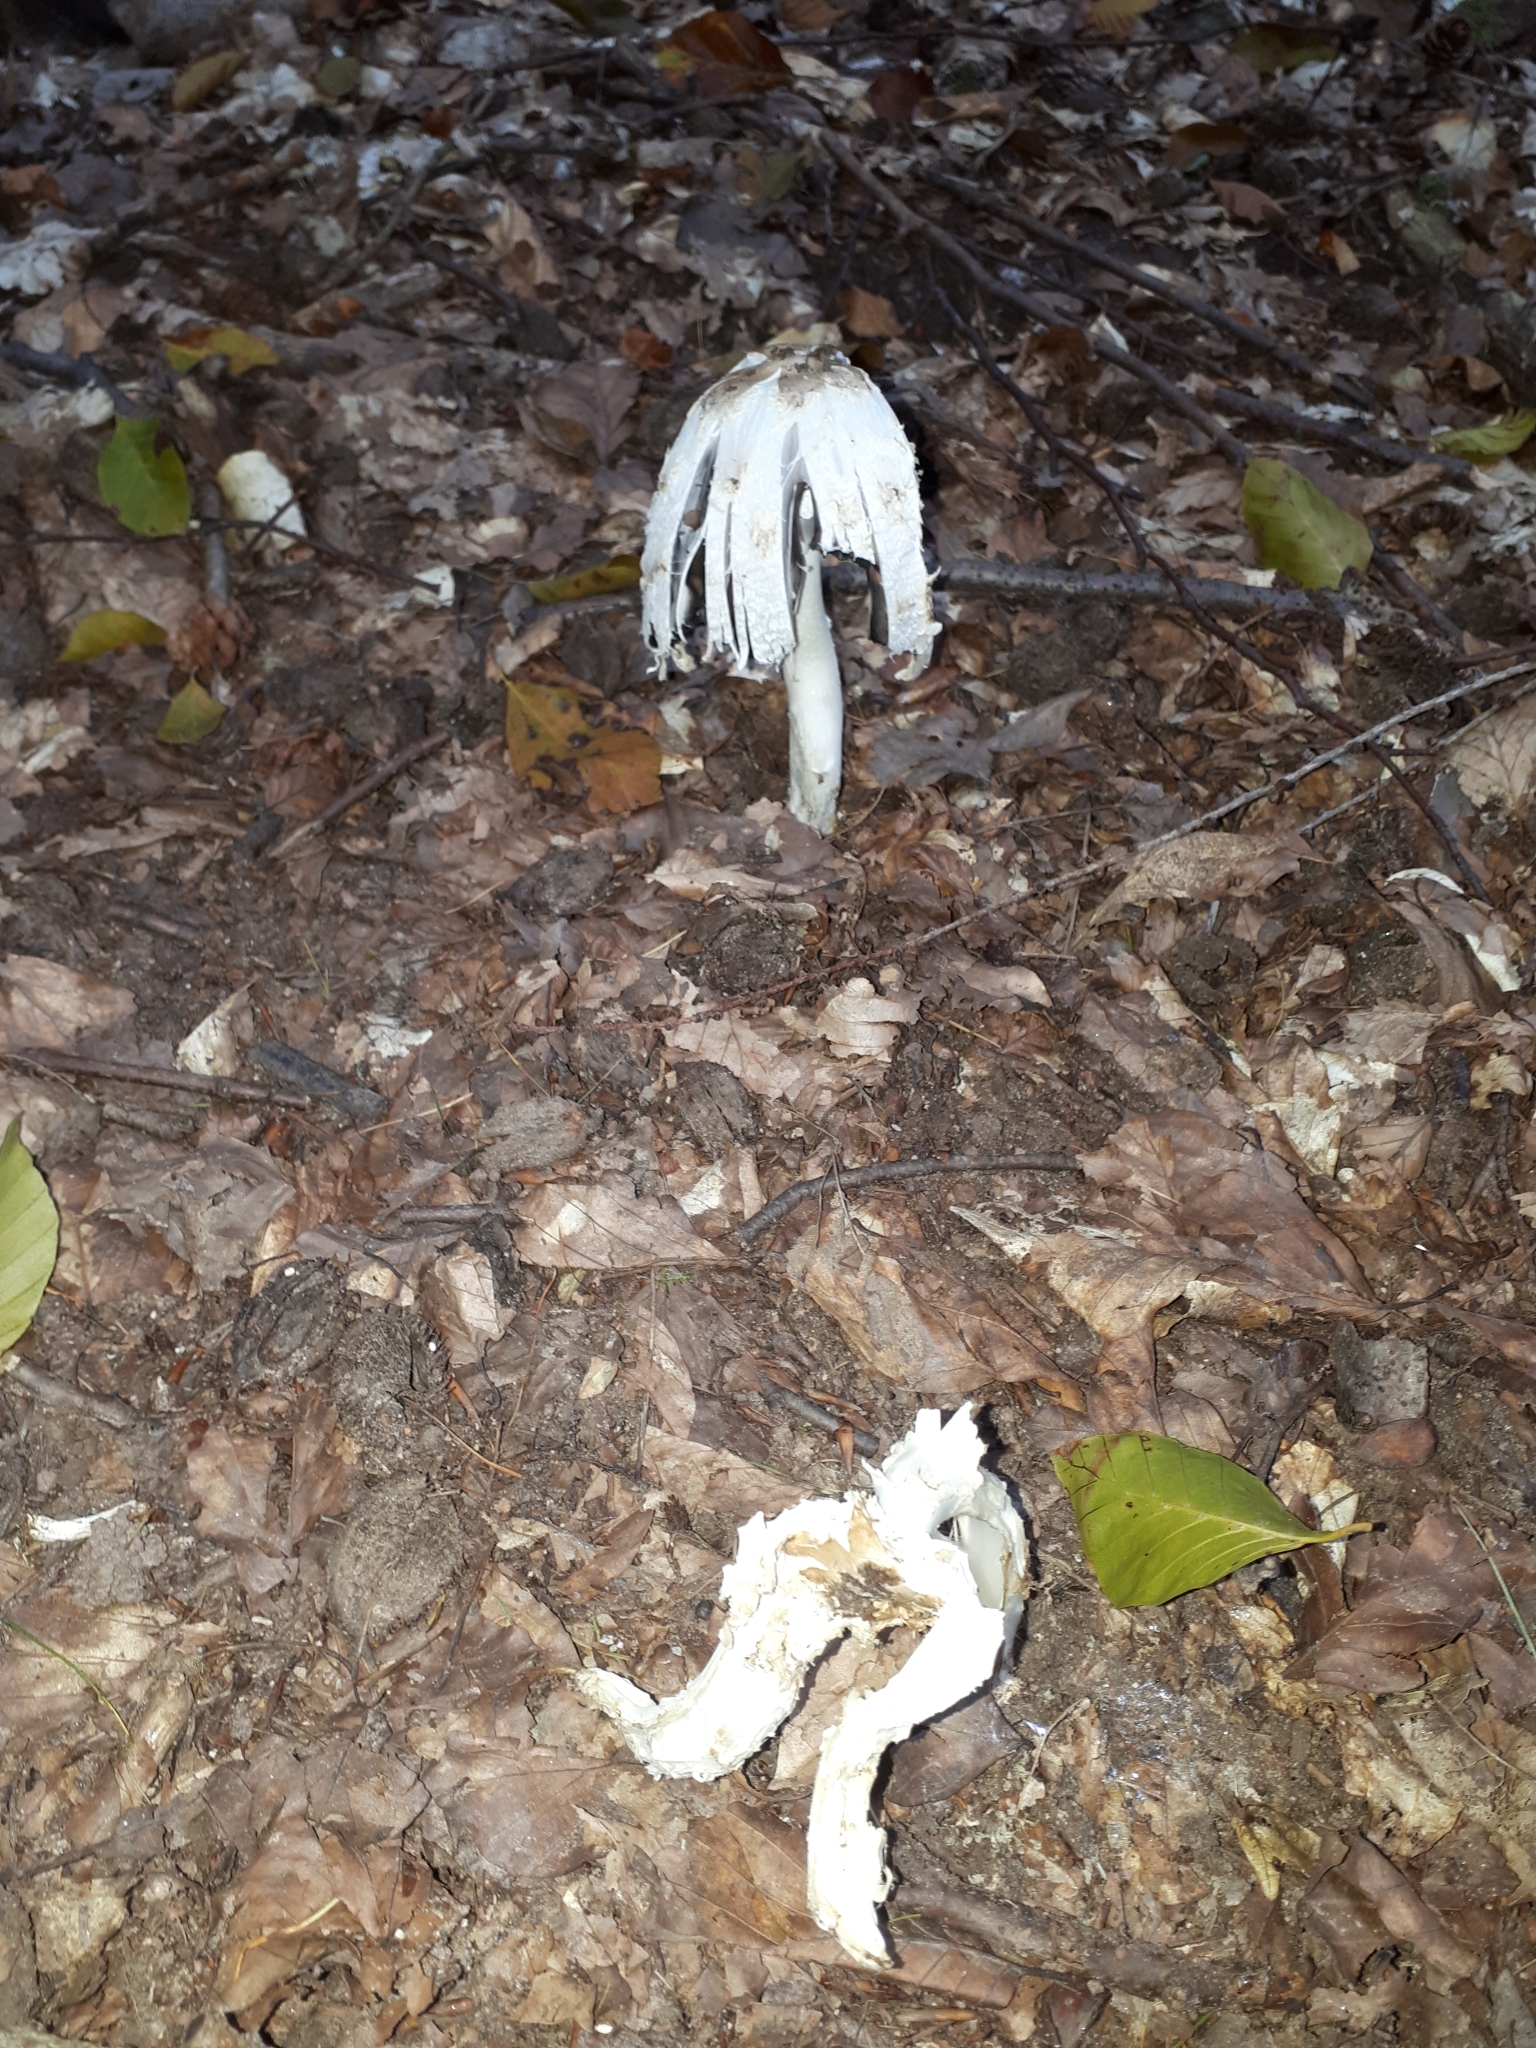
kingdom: Fungi
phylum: Basidiomycota
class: Agaricomycetes
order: Agaricales
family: Agaricaceae
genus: Coprinus
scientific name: Coprinus comatus
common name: Lawyer's wig
